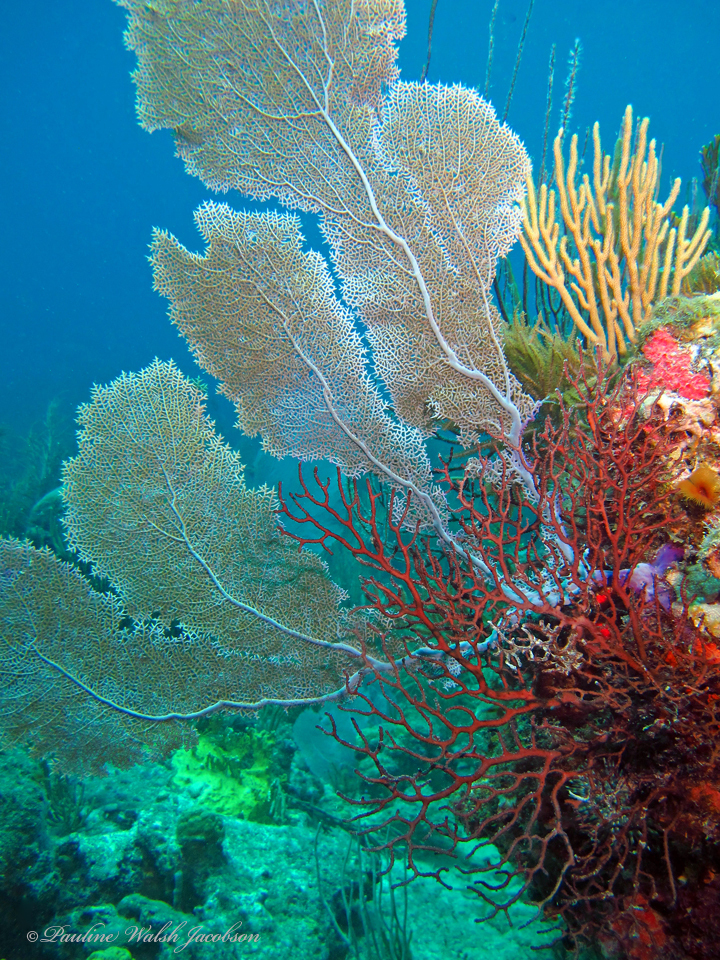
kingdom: Animalia
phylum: Cnidaria
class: Anthozoa
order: Malacalcyonacea
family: Gorgoniidae
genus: Gorgonia
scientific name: Gorgonia ventalina
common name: Common sea fan
